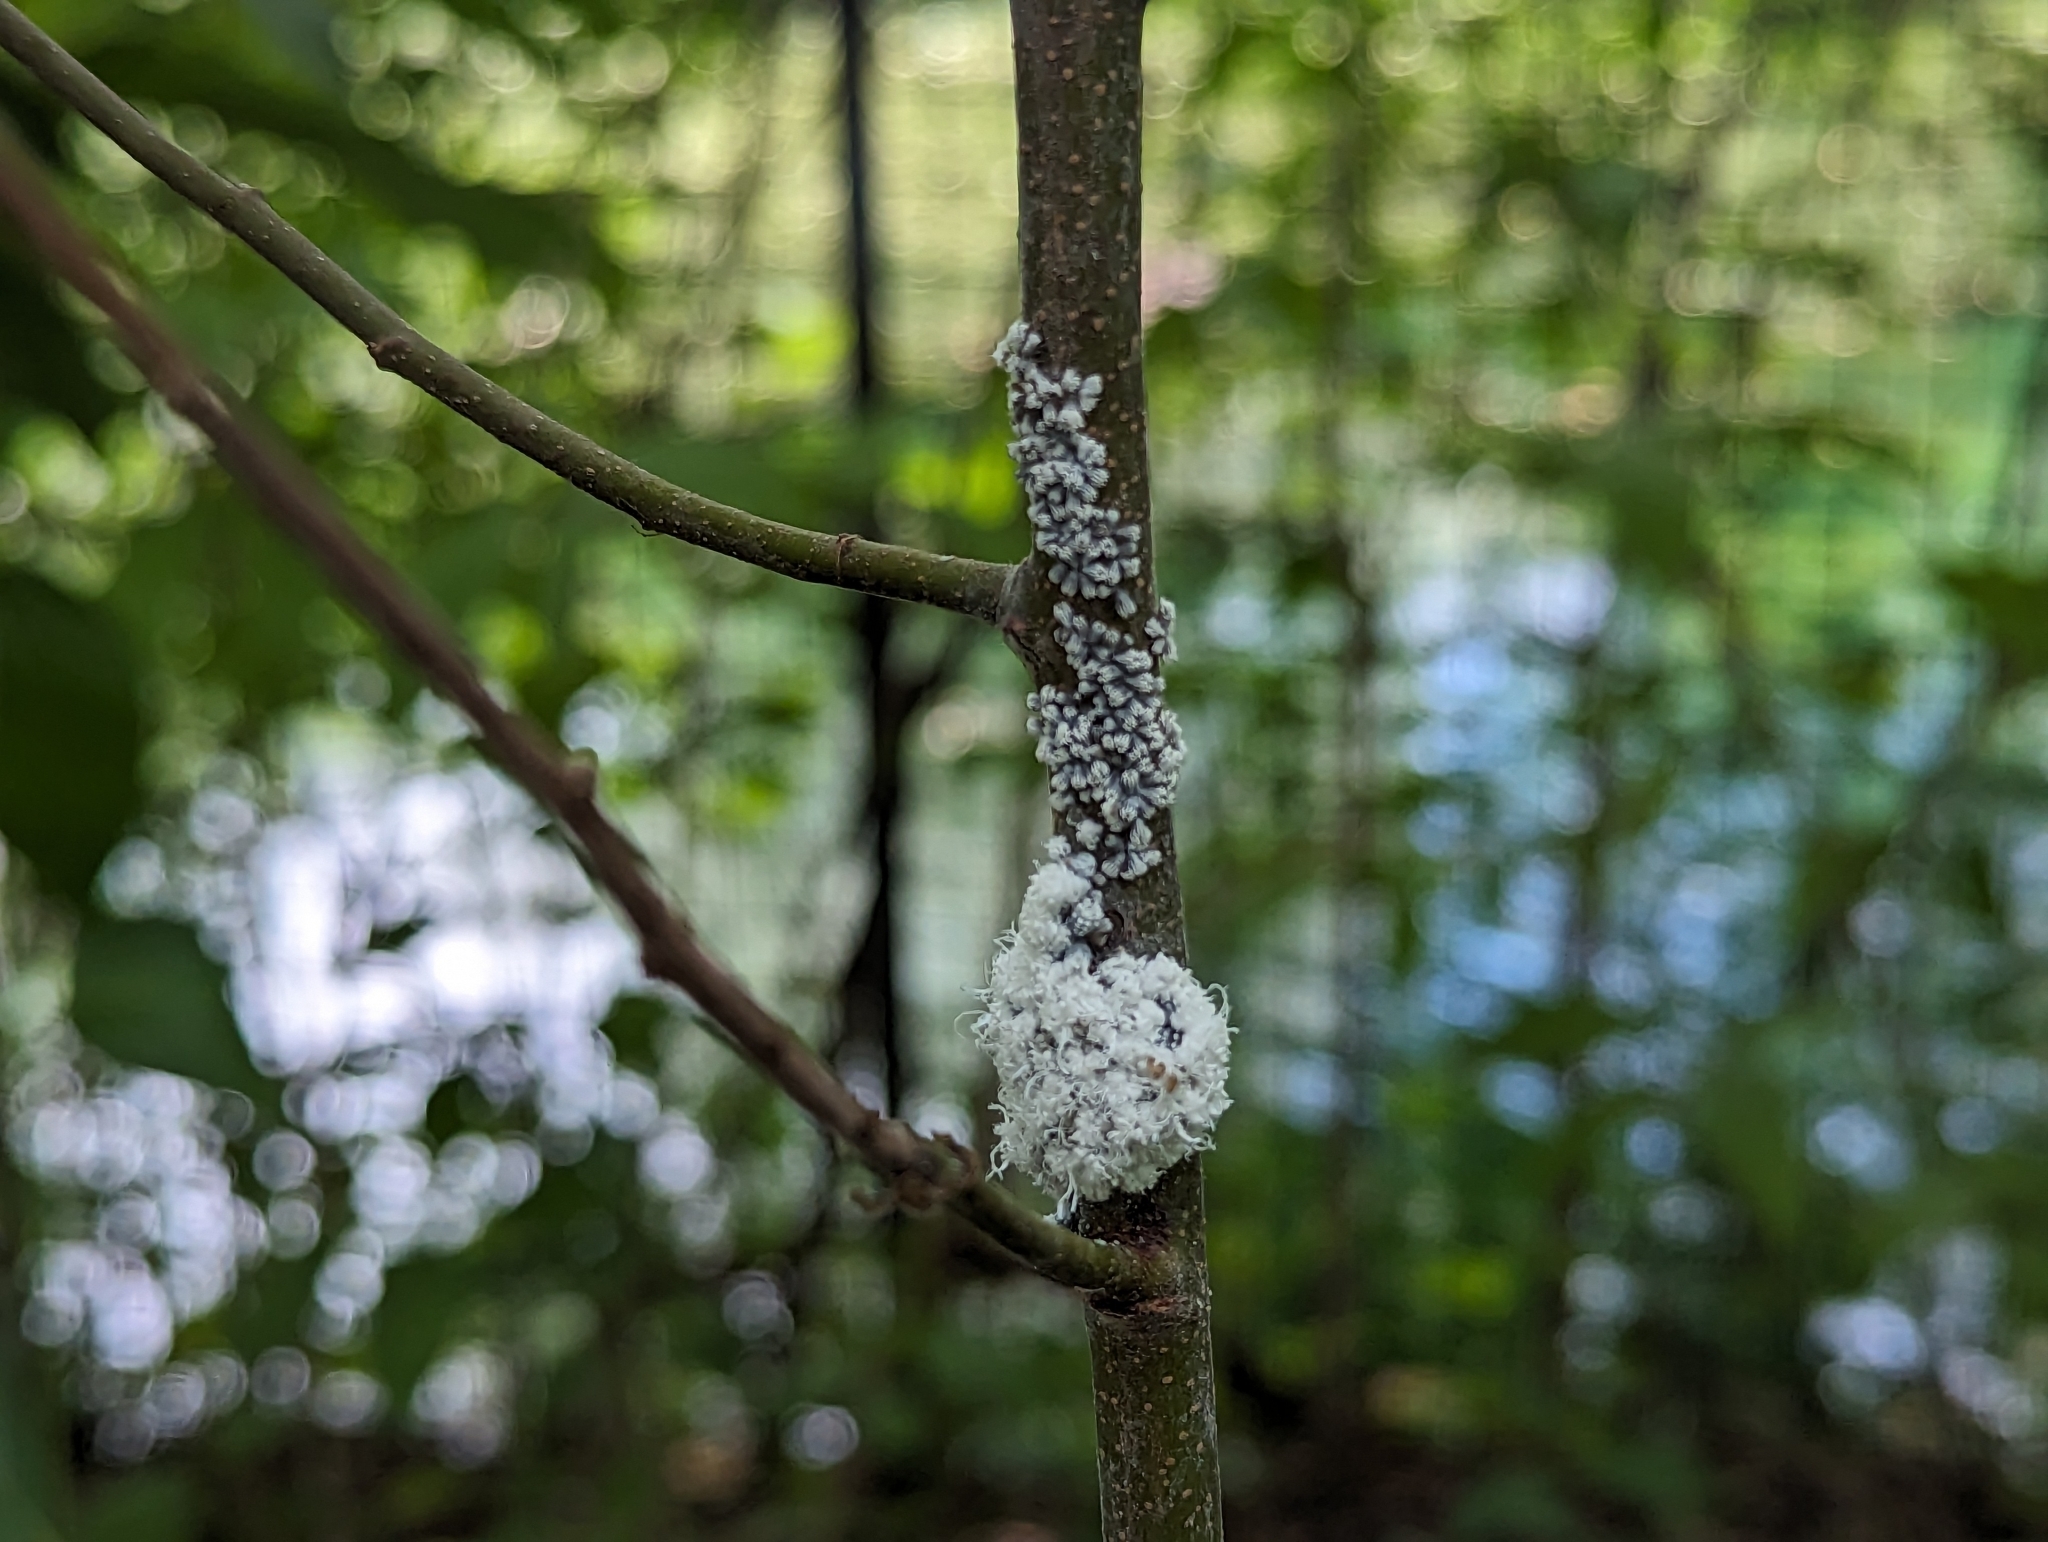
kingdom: Animalia
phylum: Arthropoda
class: Insecta
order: Hemiptera
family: Aphididae
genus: Prociphilus
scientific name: Prociphilus tessellatus
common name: Woolly alder aphid
